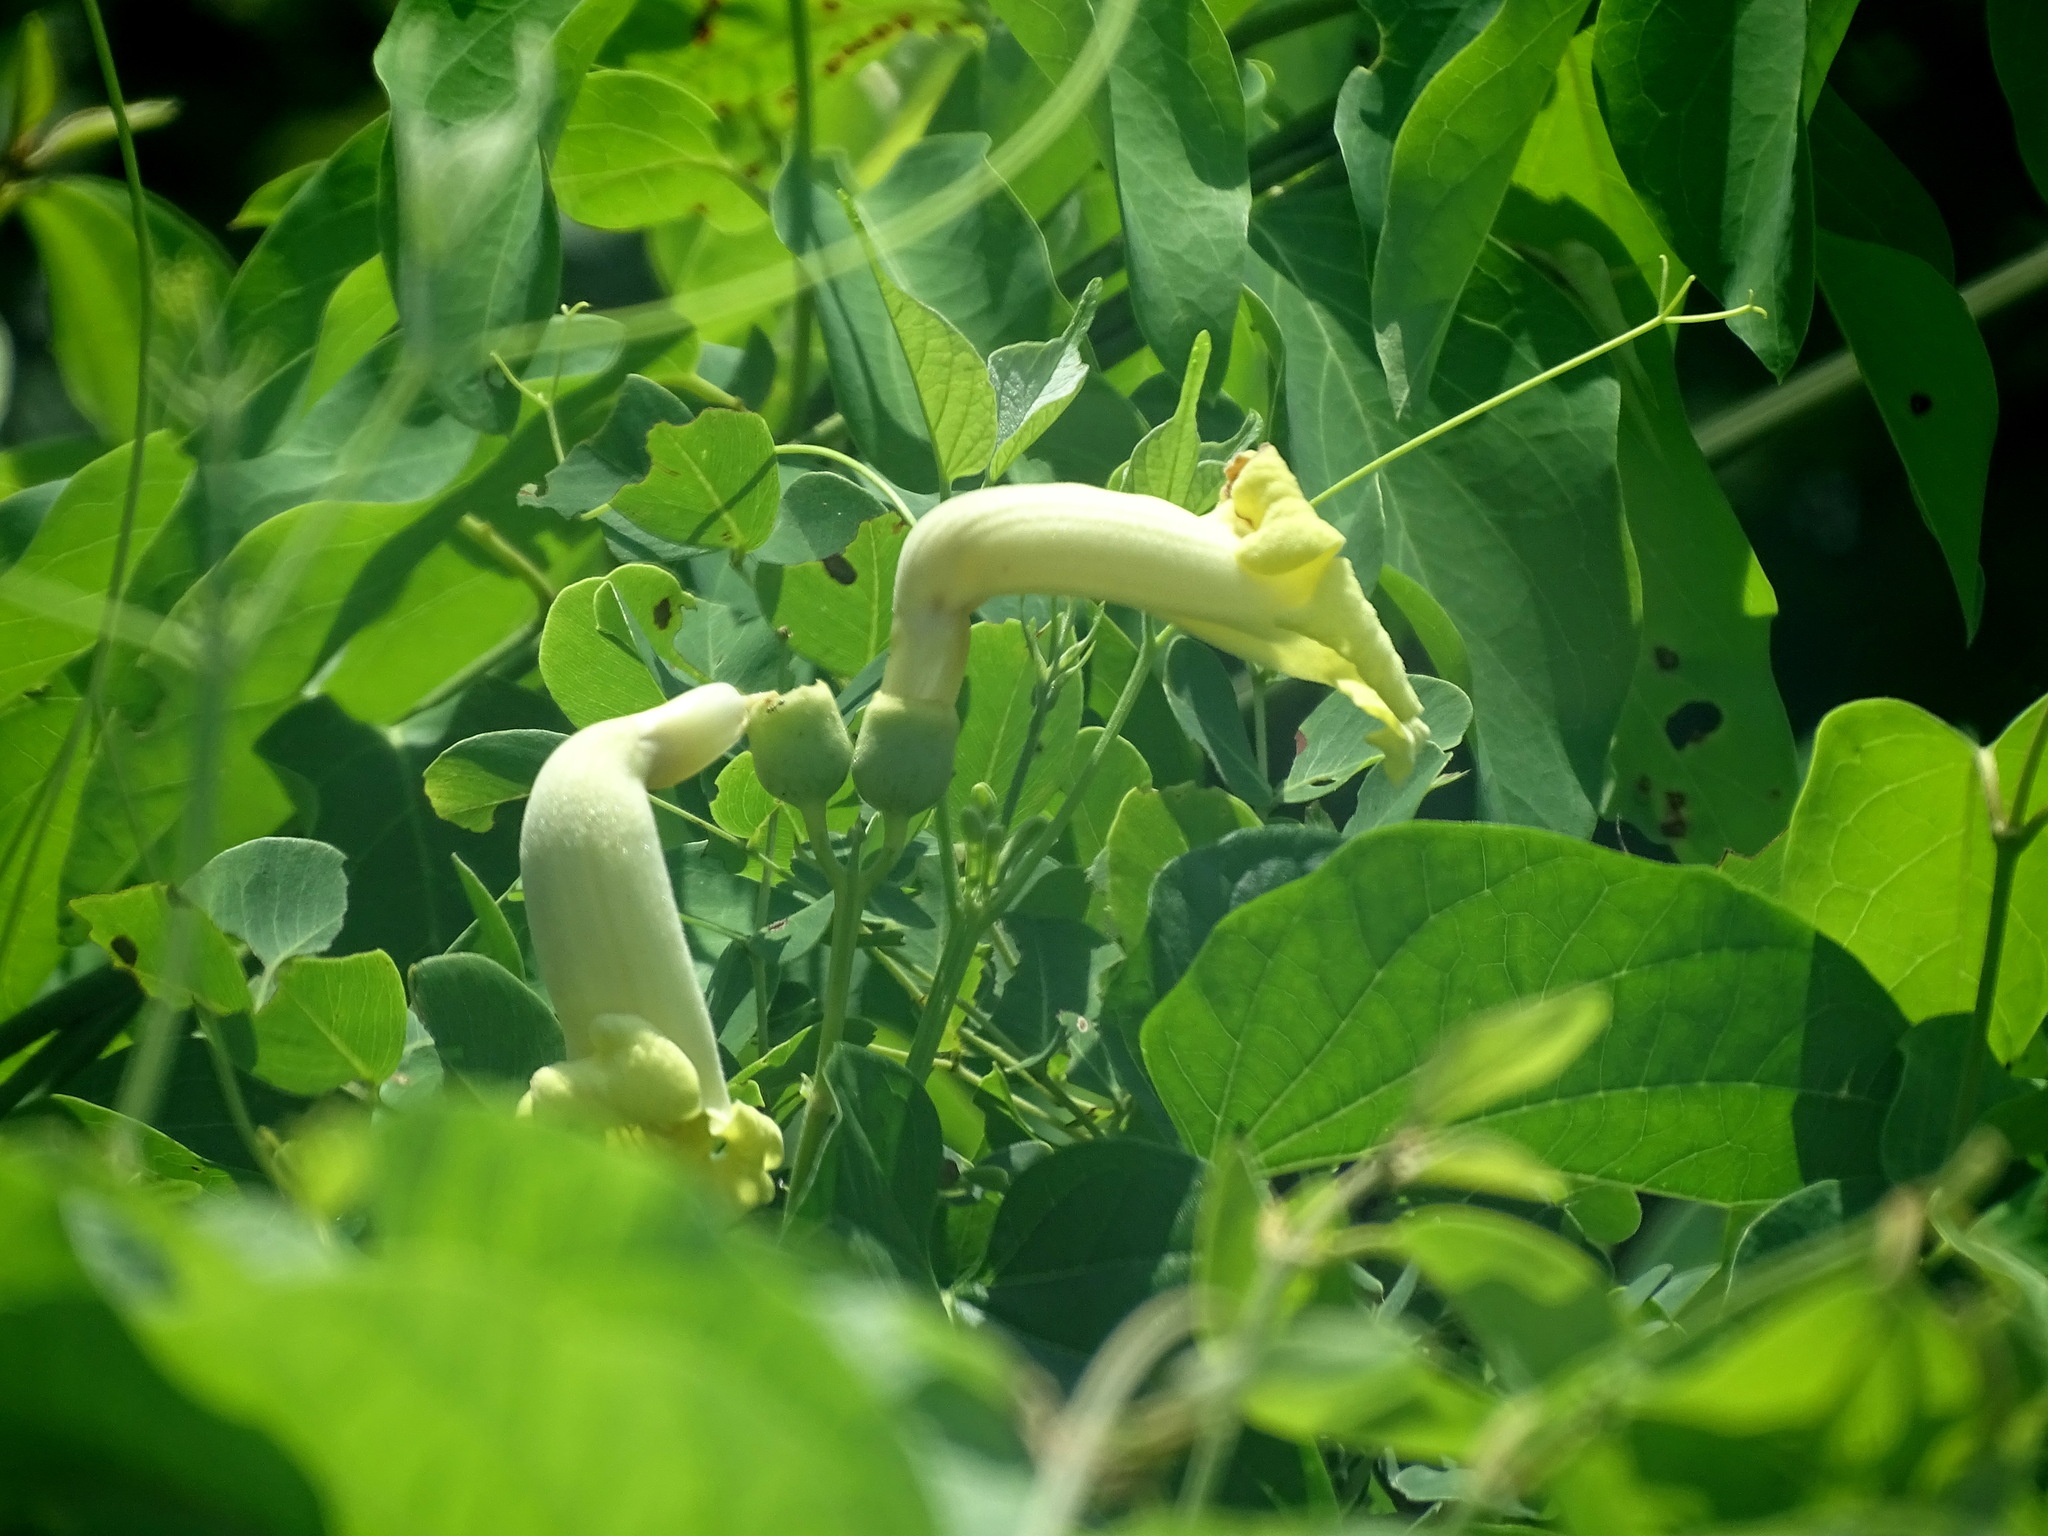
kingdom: Plantae
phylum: Tracheophyta
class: Magnoliopsida
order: Lamiales
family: Bignoniaceae
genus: Amphilophium
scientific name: Amphilophium crucigerum
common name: Monkey comb
